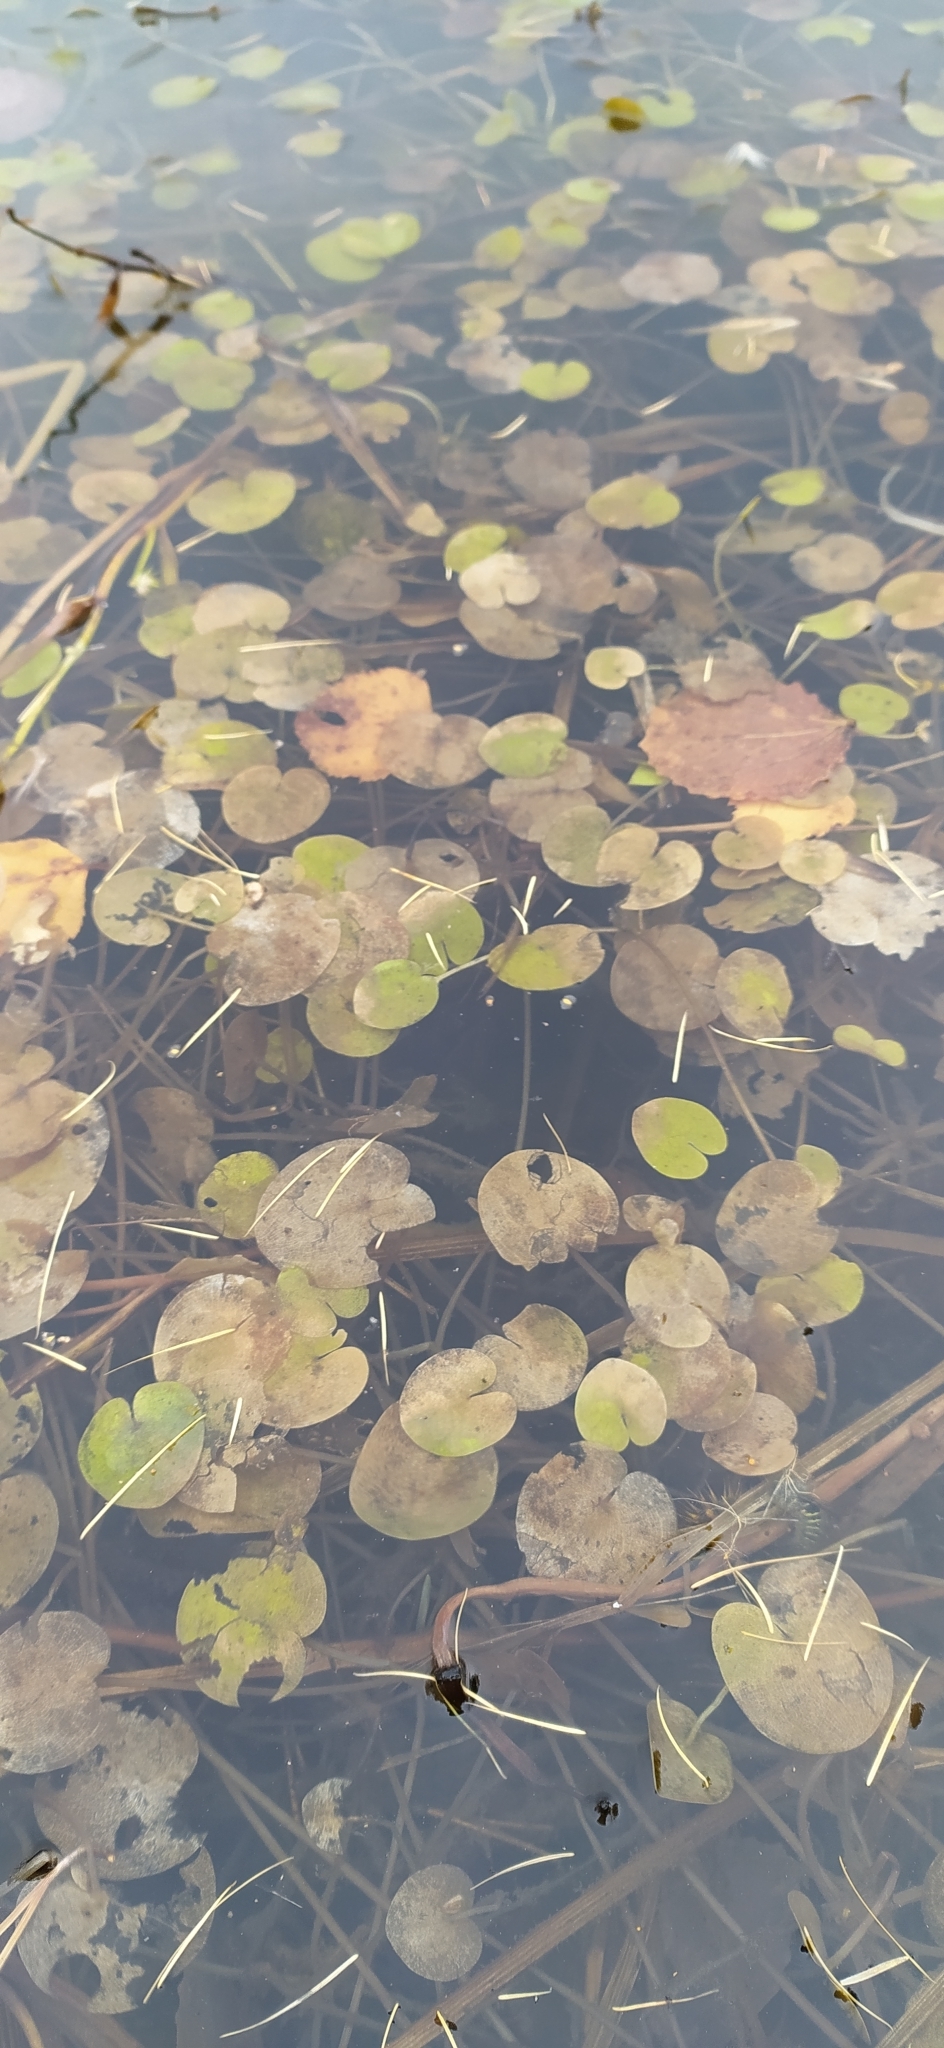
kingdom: Plantae
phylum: Tracheophyta
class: Liliopsida
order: Alismatales
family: Hydrocharitaceae
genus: Hydrocharis
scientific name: Hydrocharis morsus-ranae
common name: Frogbit
